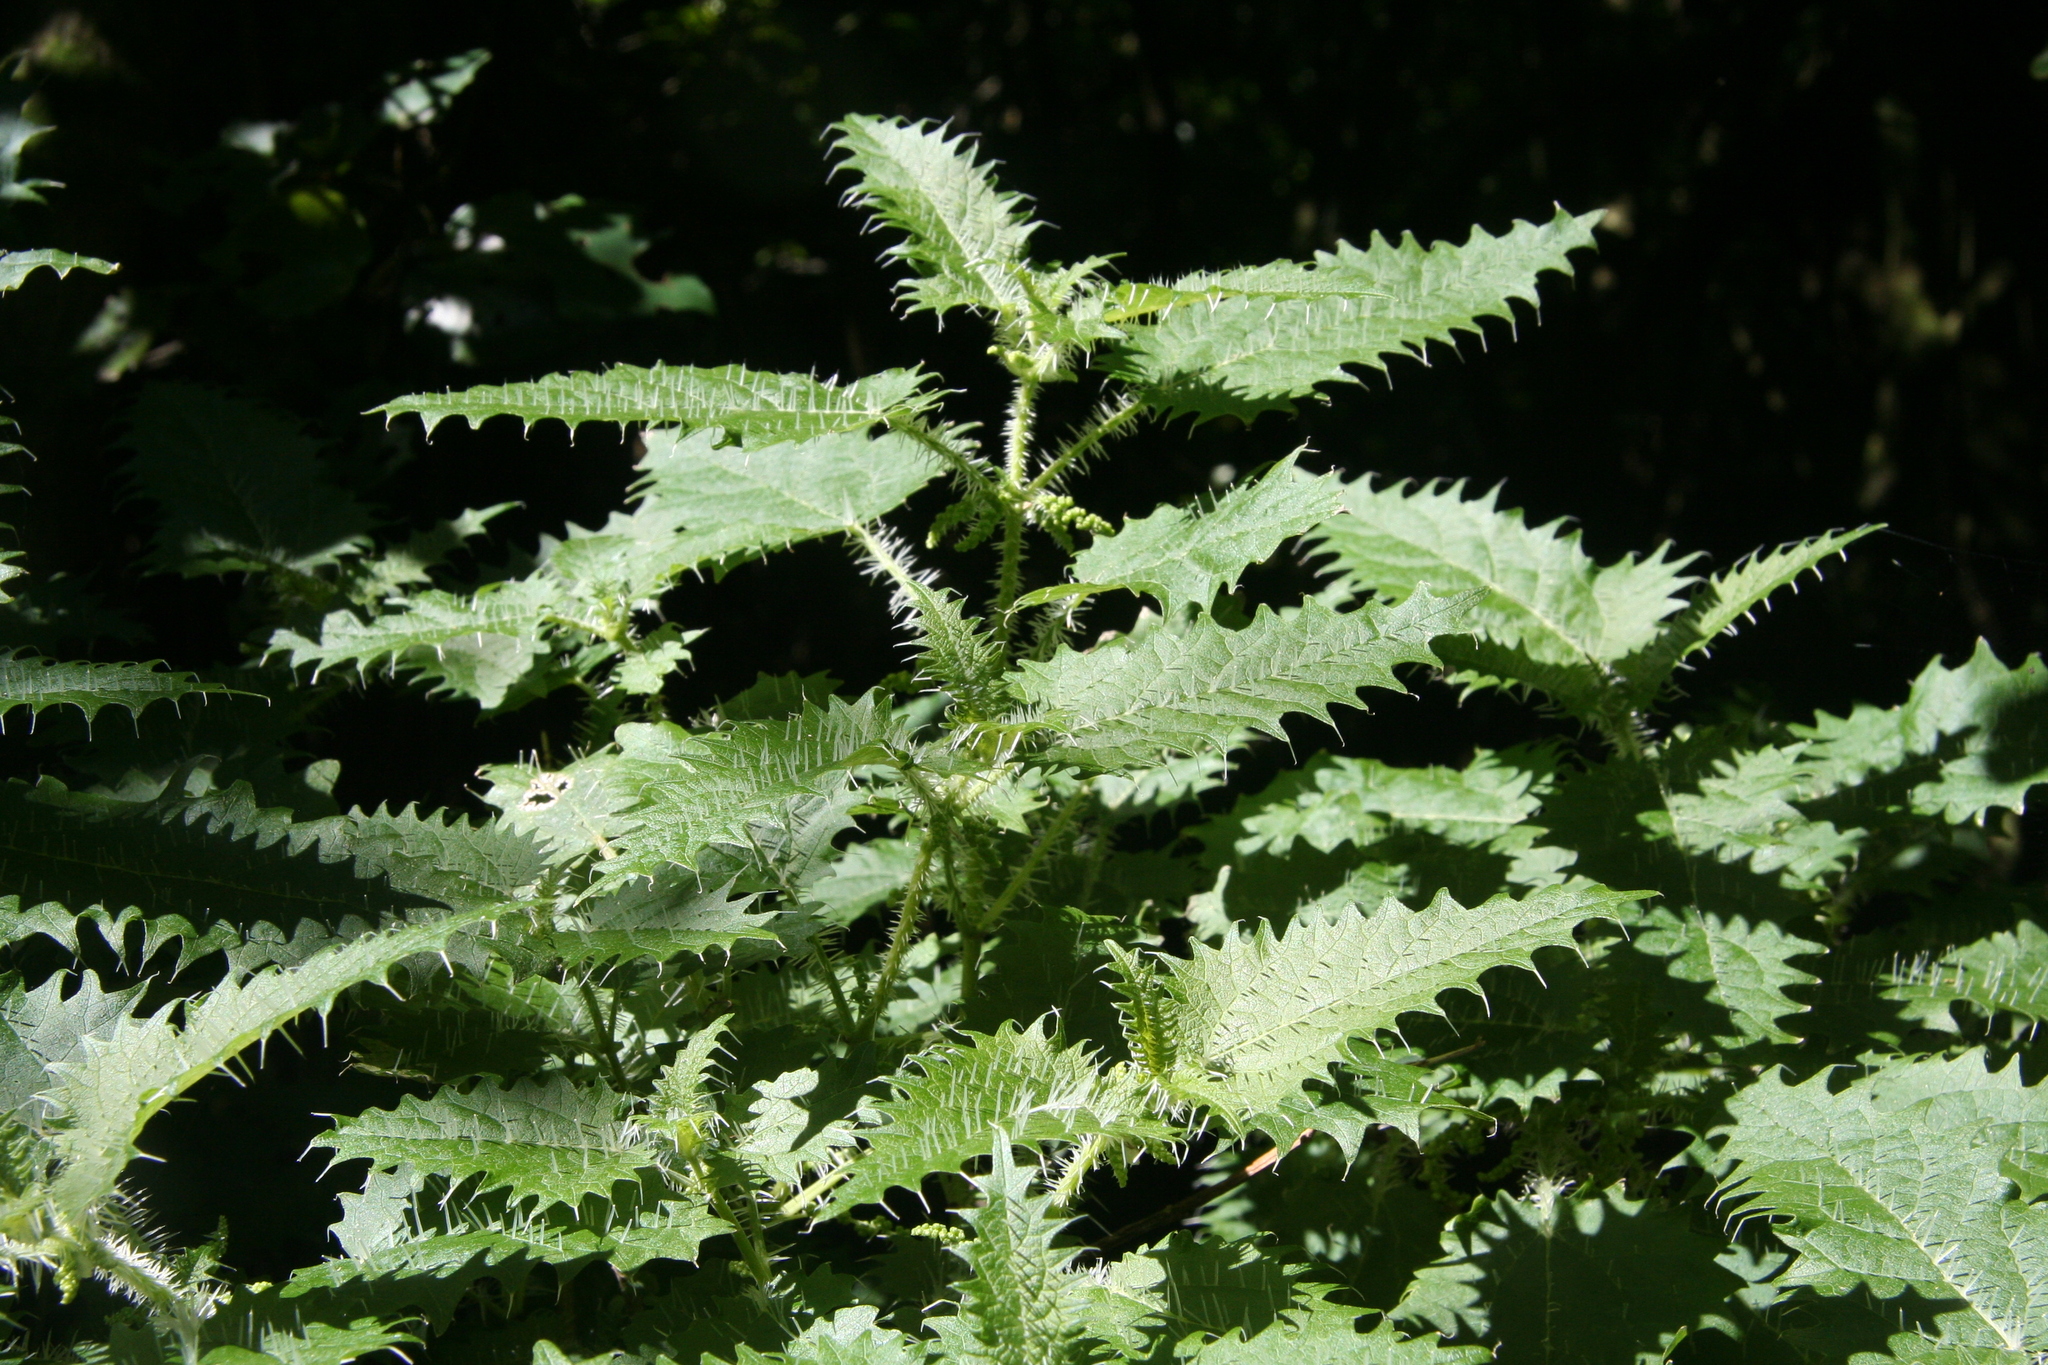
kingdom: Plantae
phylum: Tracheophyta
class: Magnoliopsida
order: Rosales
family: Urticaceae
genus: Urtica
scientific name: Urtica ferox
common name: Tree nettle
